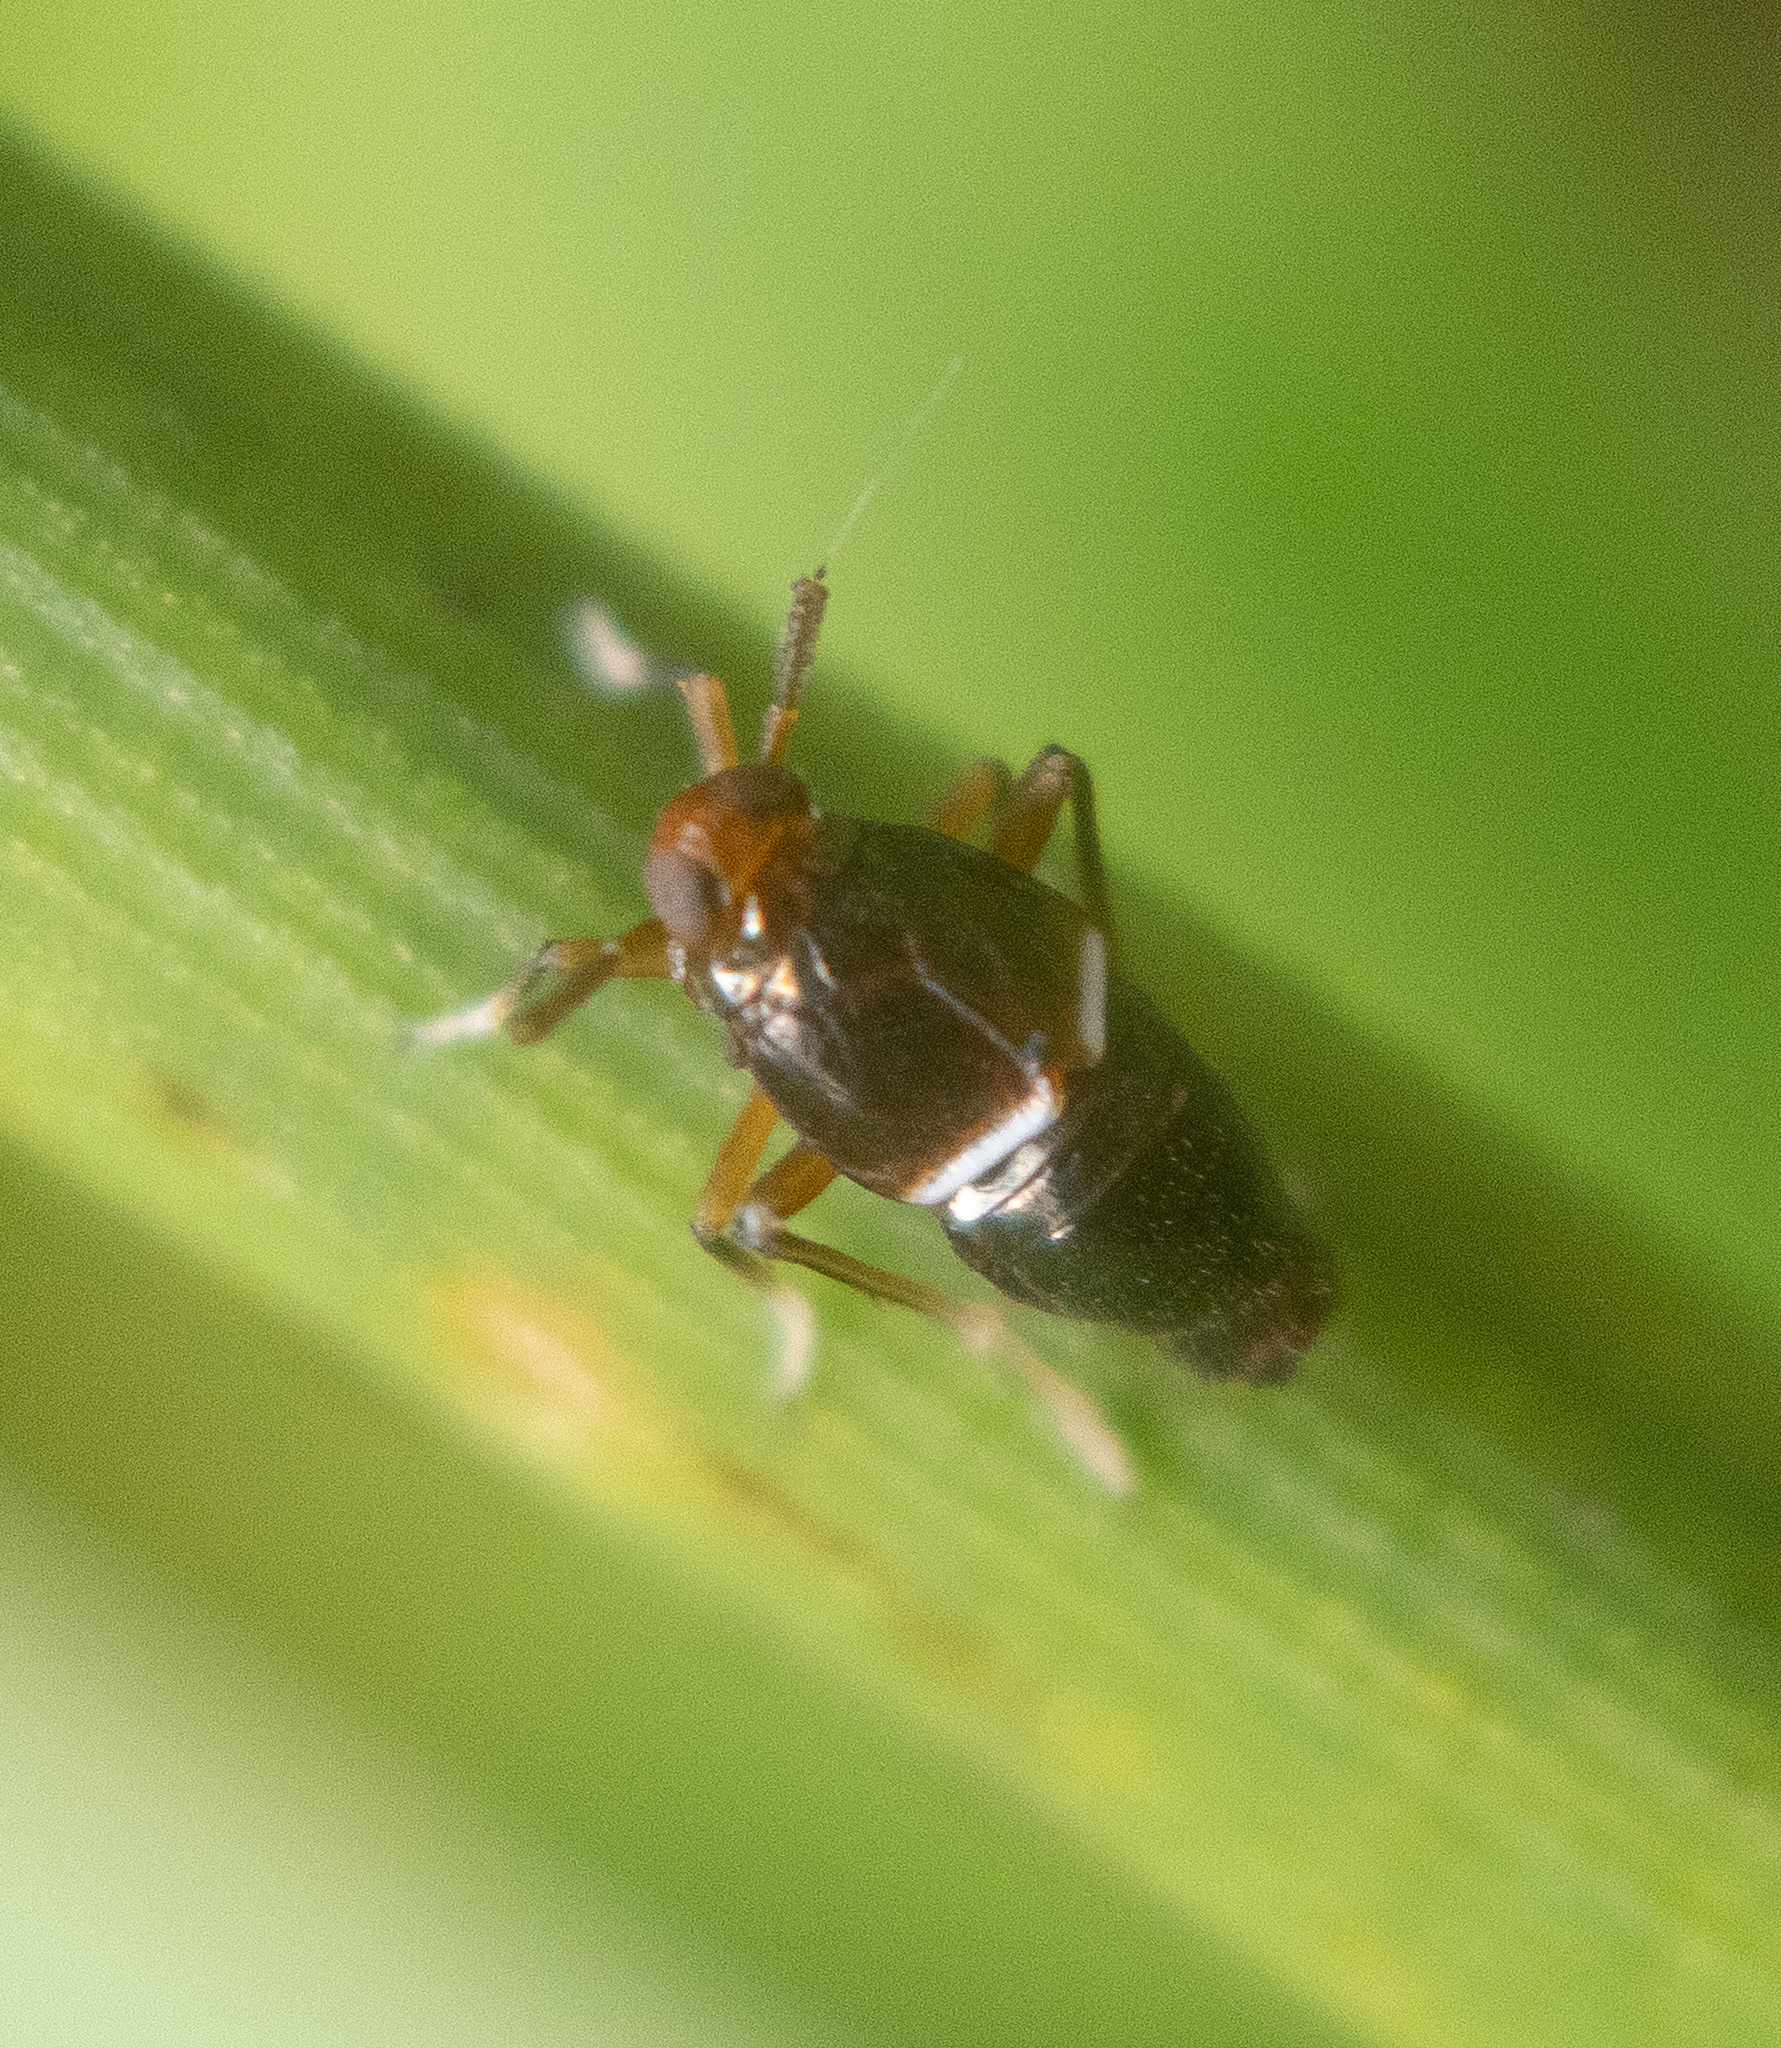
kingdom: Animalia
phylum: Arthropoda
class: Insecta
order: Hemiptera
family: Delphacidae
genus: Pissonotus
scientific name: Pissonotus marginatus
